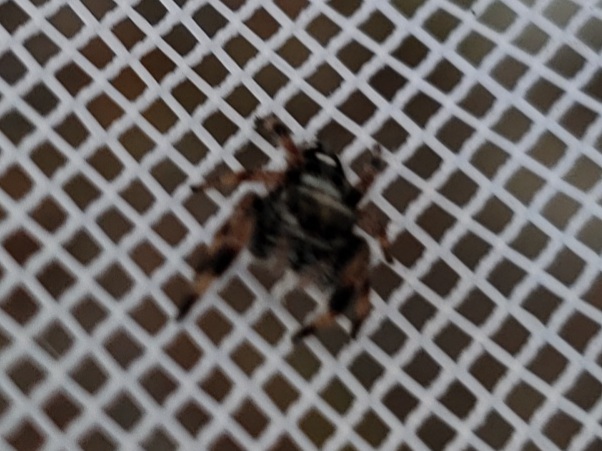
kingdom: Animalia
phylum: Arthropoda
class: Arachnida
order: Araneae
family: Salticidae
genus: Phidippus
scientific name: Phidippus regius
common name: Regal jumper
